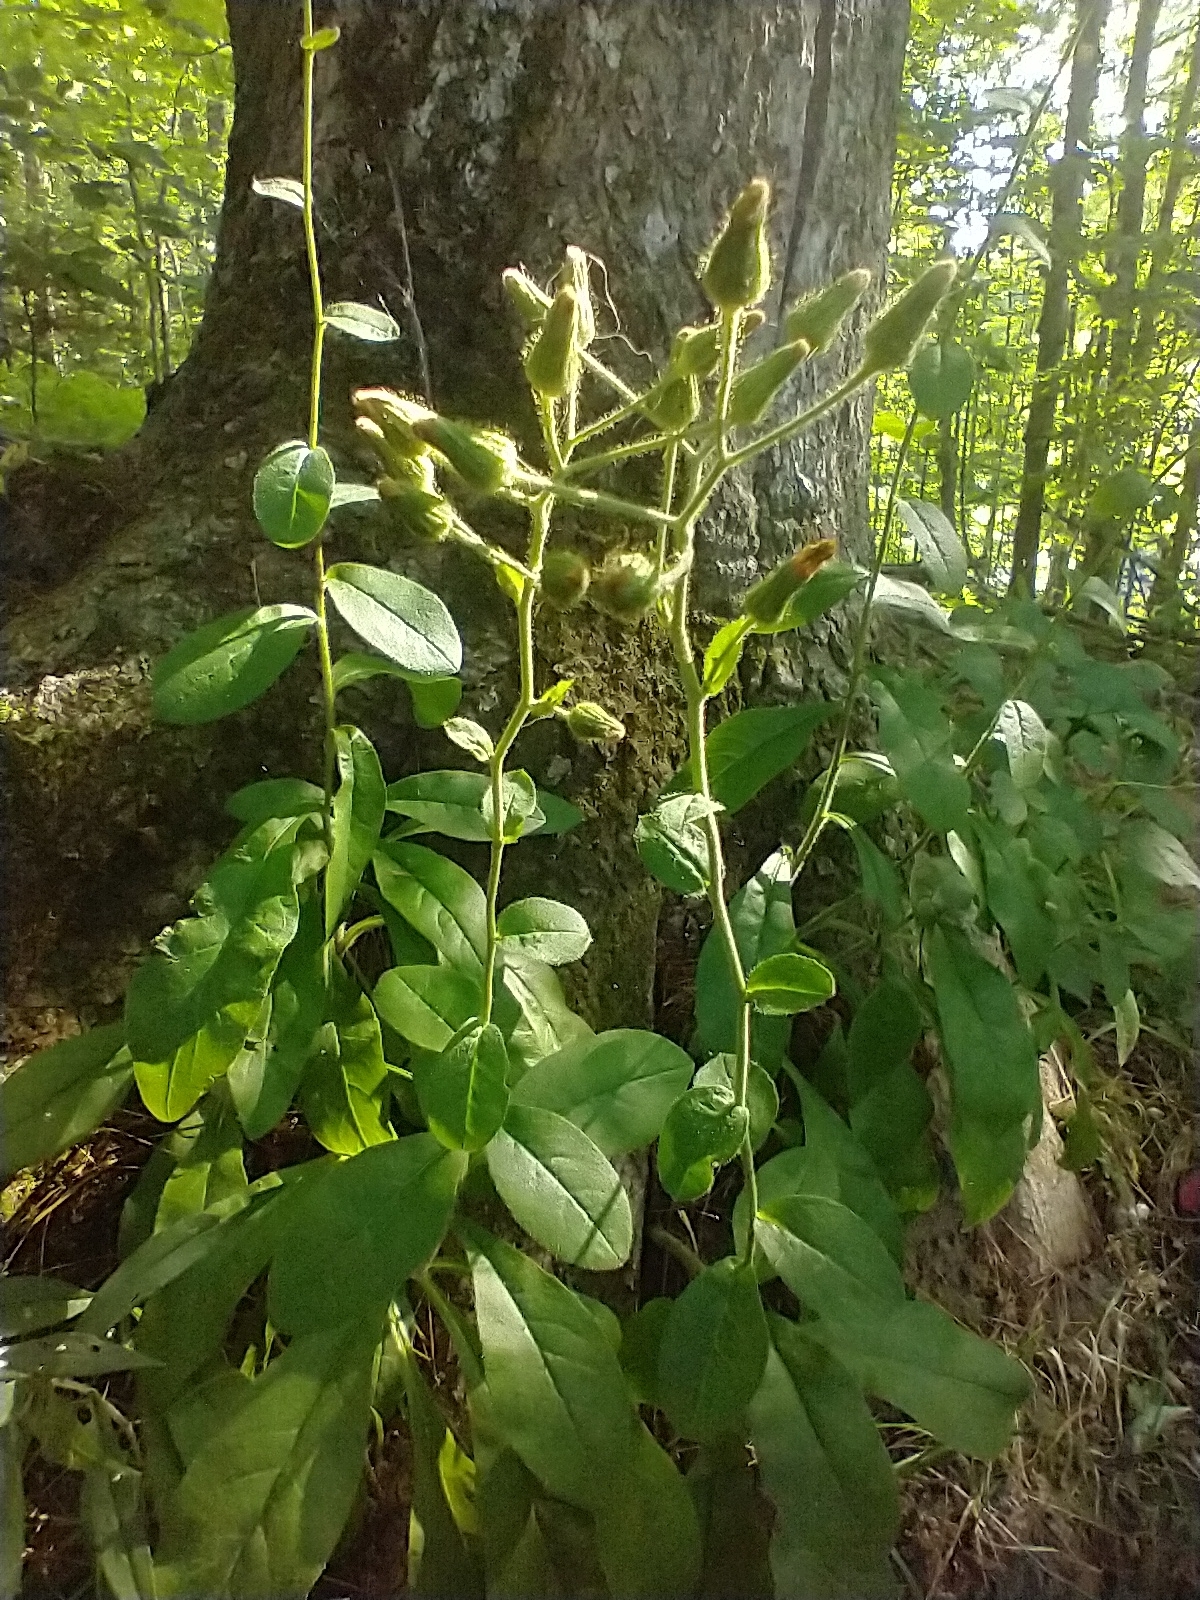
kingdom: Plantae
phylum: Tracheophyta
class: Magnoliopsida
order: Asterales
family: Asteraceae
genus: Hieracium
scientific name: Hieracium scabrum
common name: Rough hawkweed
